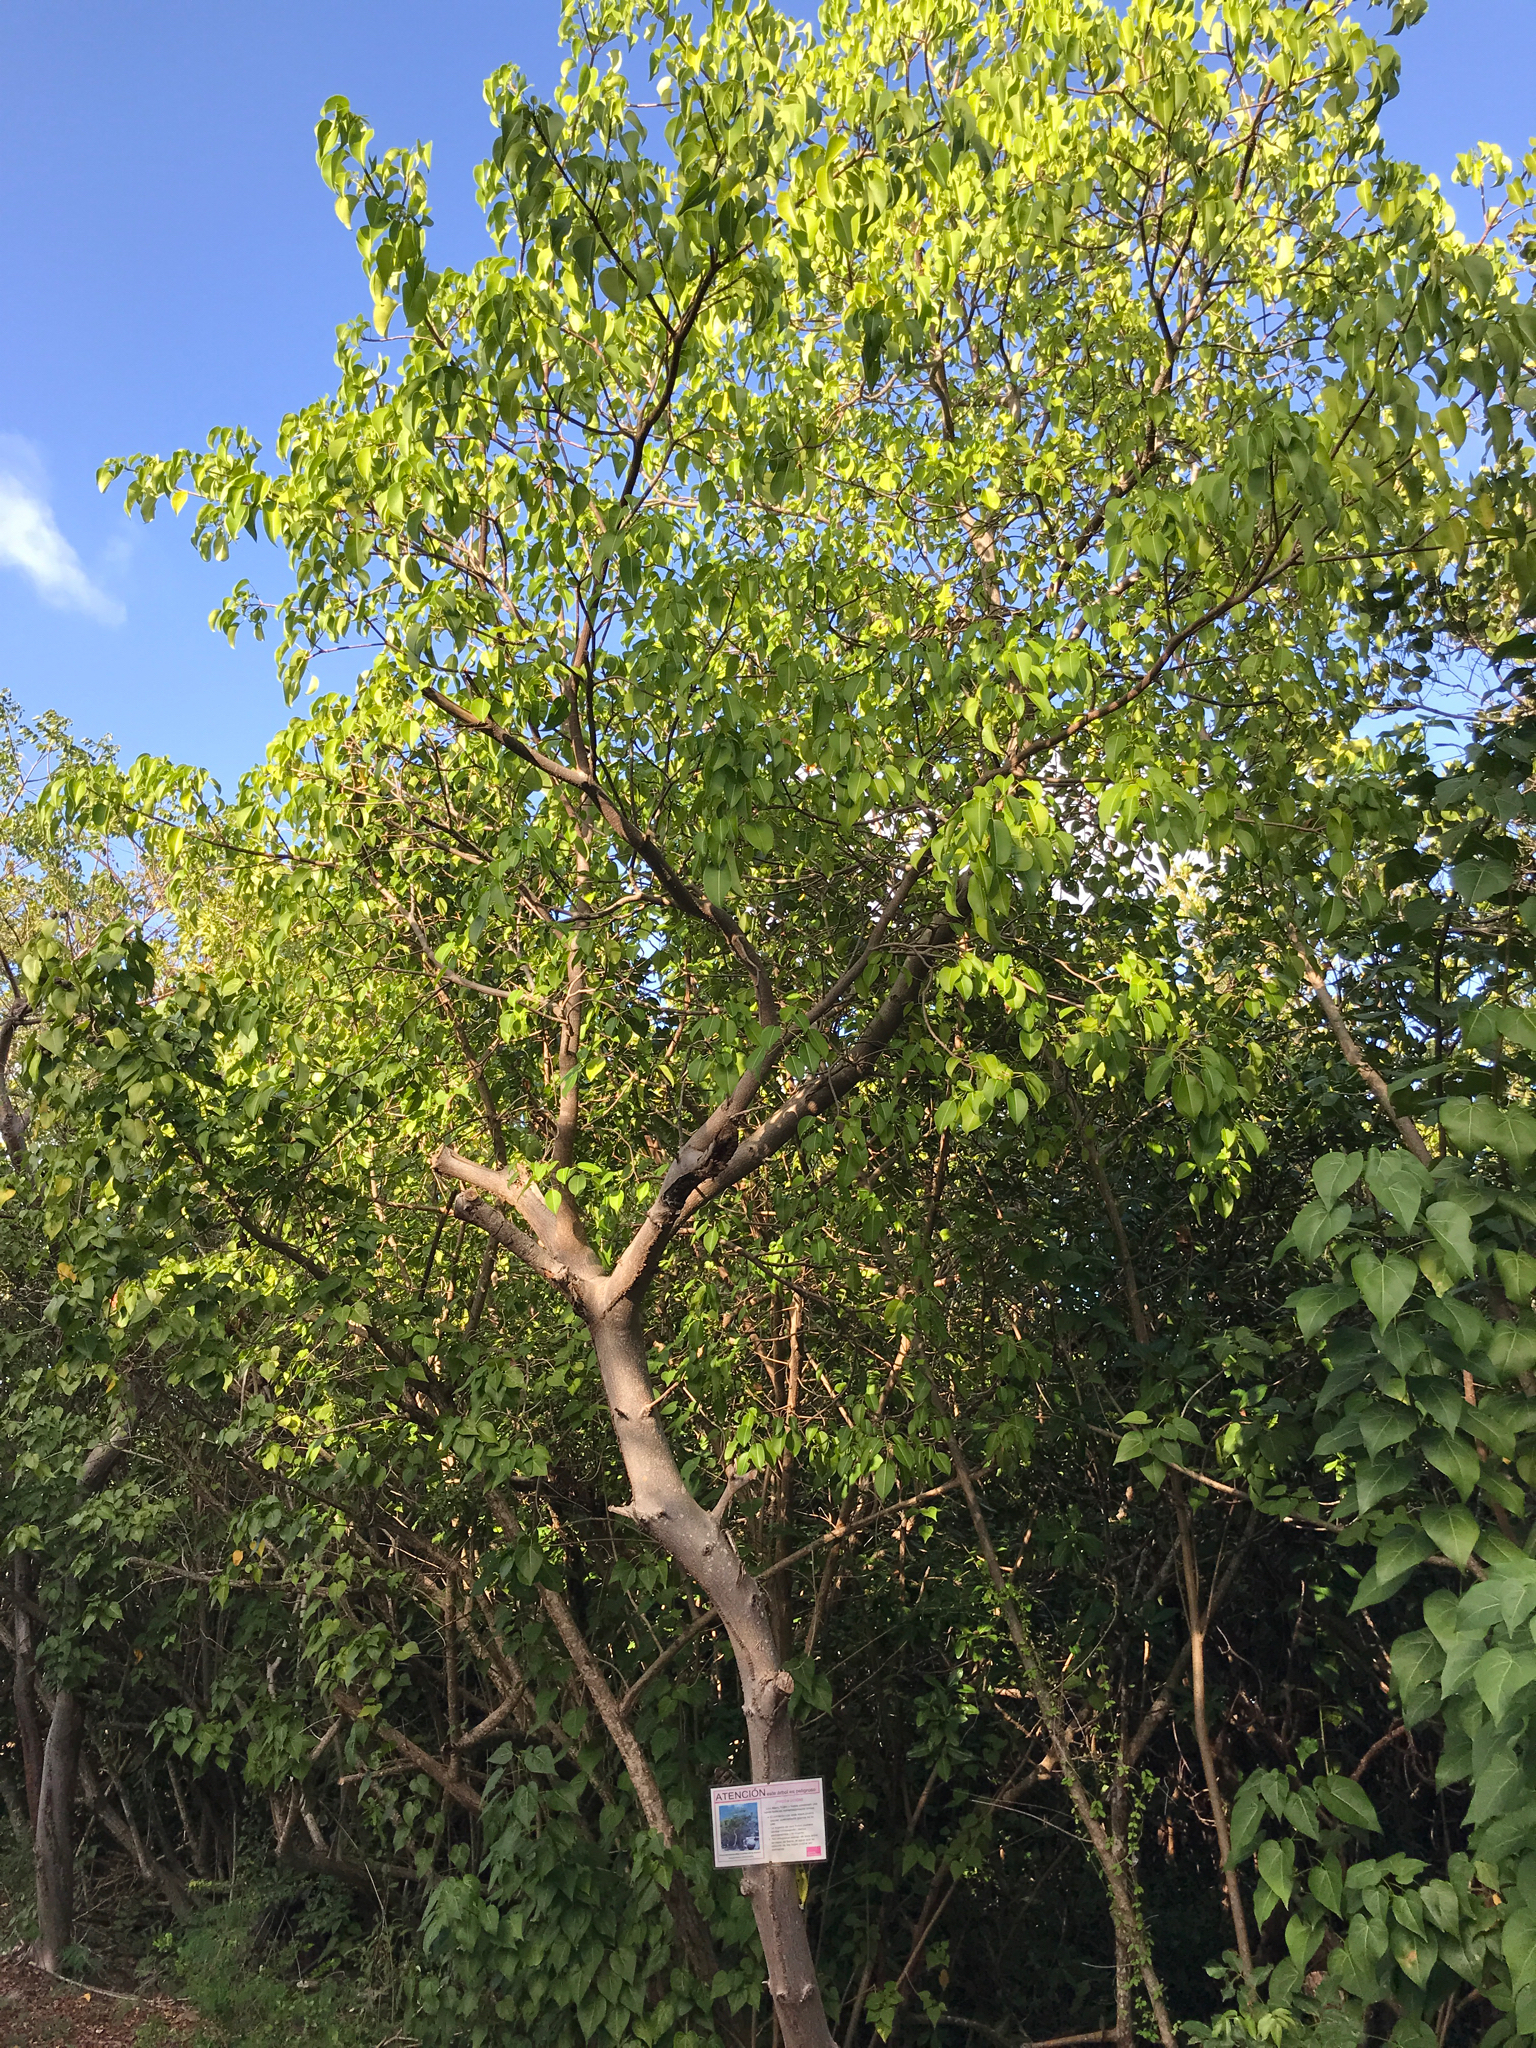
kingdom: Plantae
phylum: Tracheophyta
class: Magnoliopsida
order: Malpighiales
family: Euphorbiaceae
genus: Hippomane
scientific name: Hippomane mancinella
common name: Manchineel
